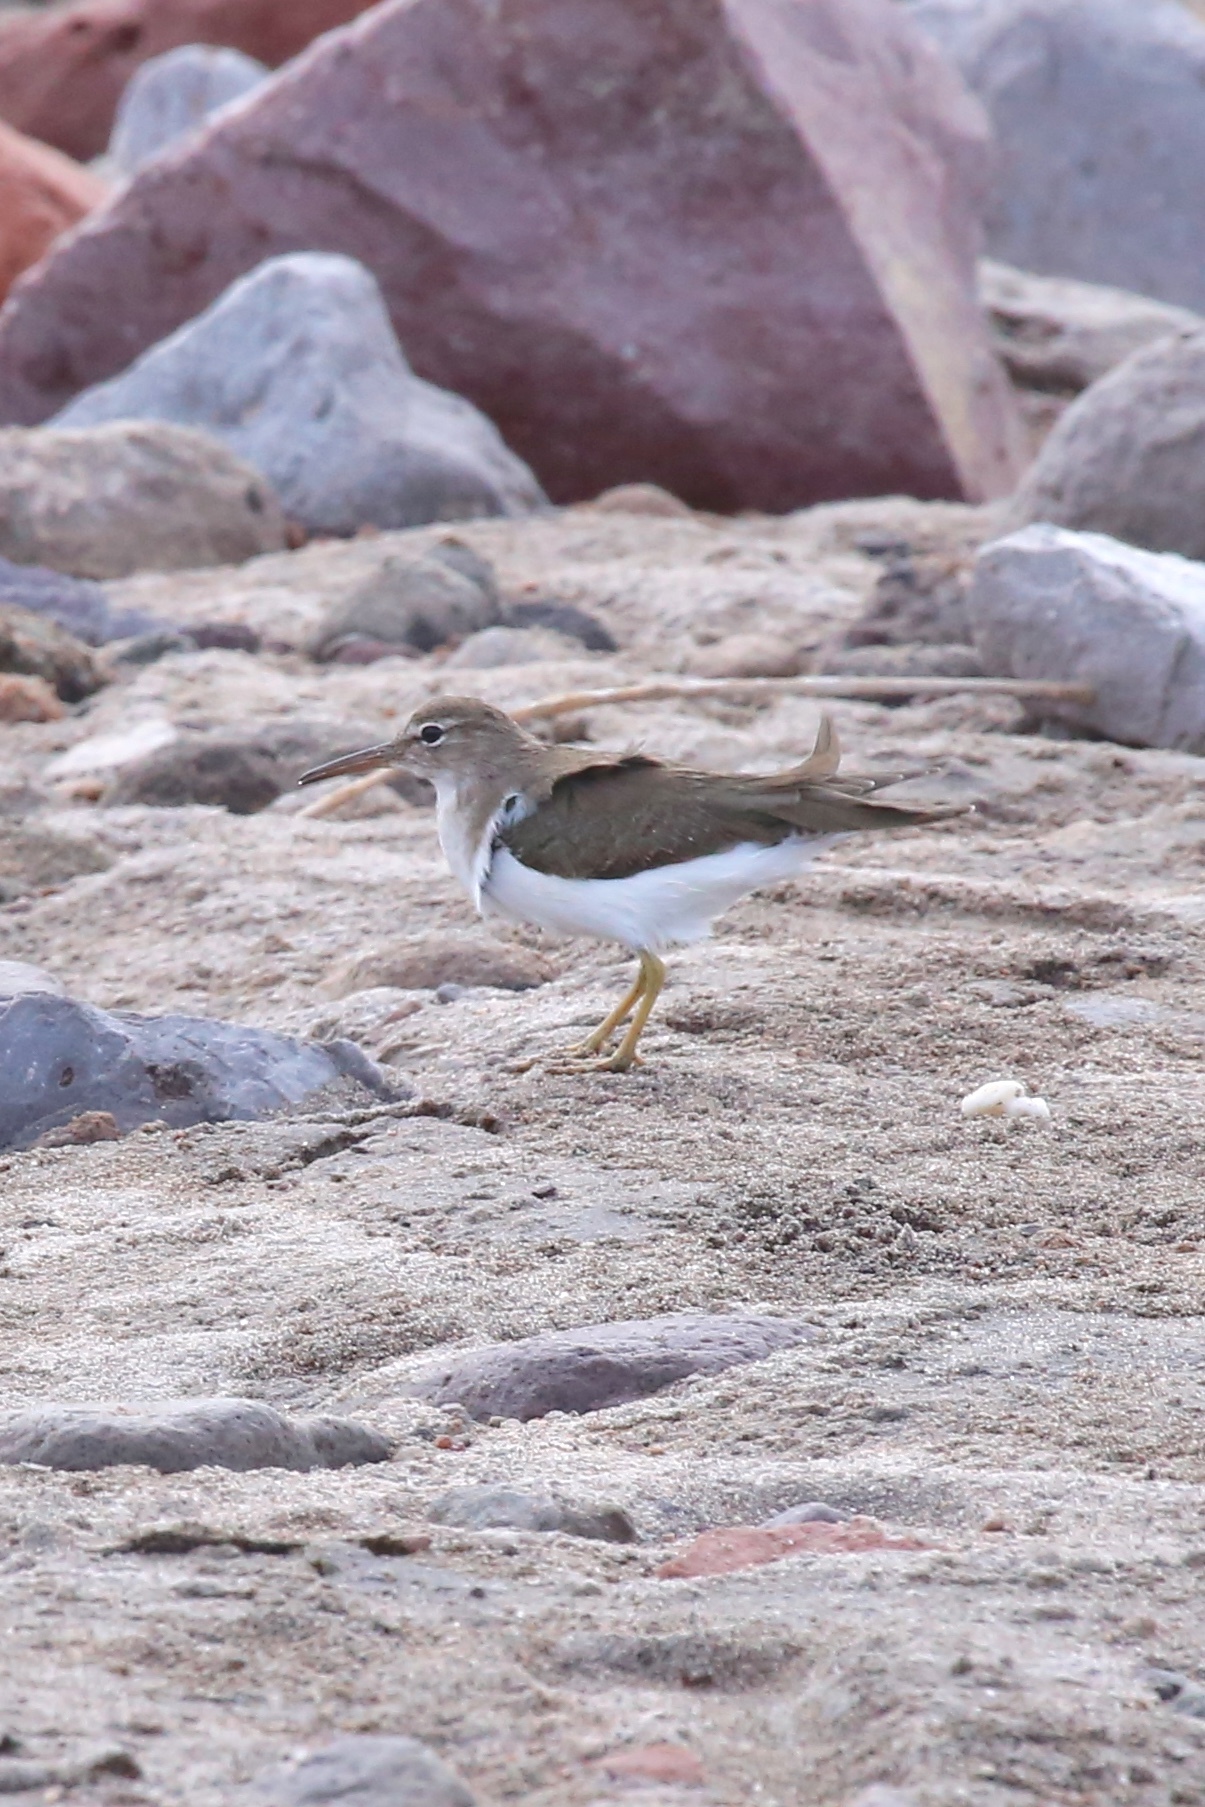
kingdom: Animalia
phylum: Chordata
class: Aves
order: Charadriiformes
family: Scolopacidae
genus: Actitis
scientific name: Actitis macularius
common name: Spotted sandpiper
